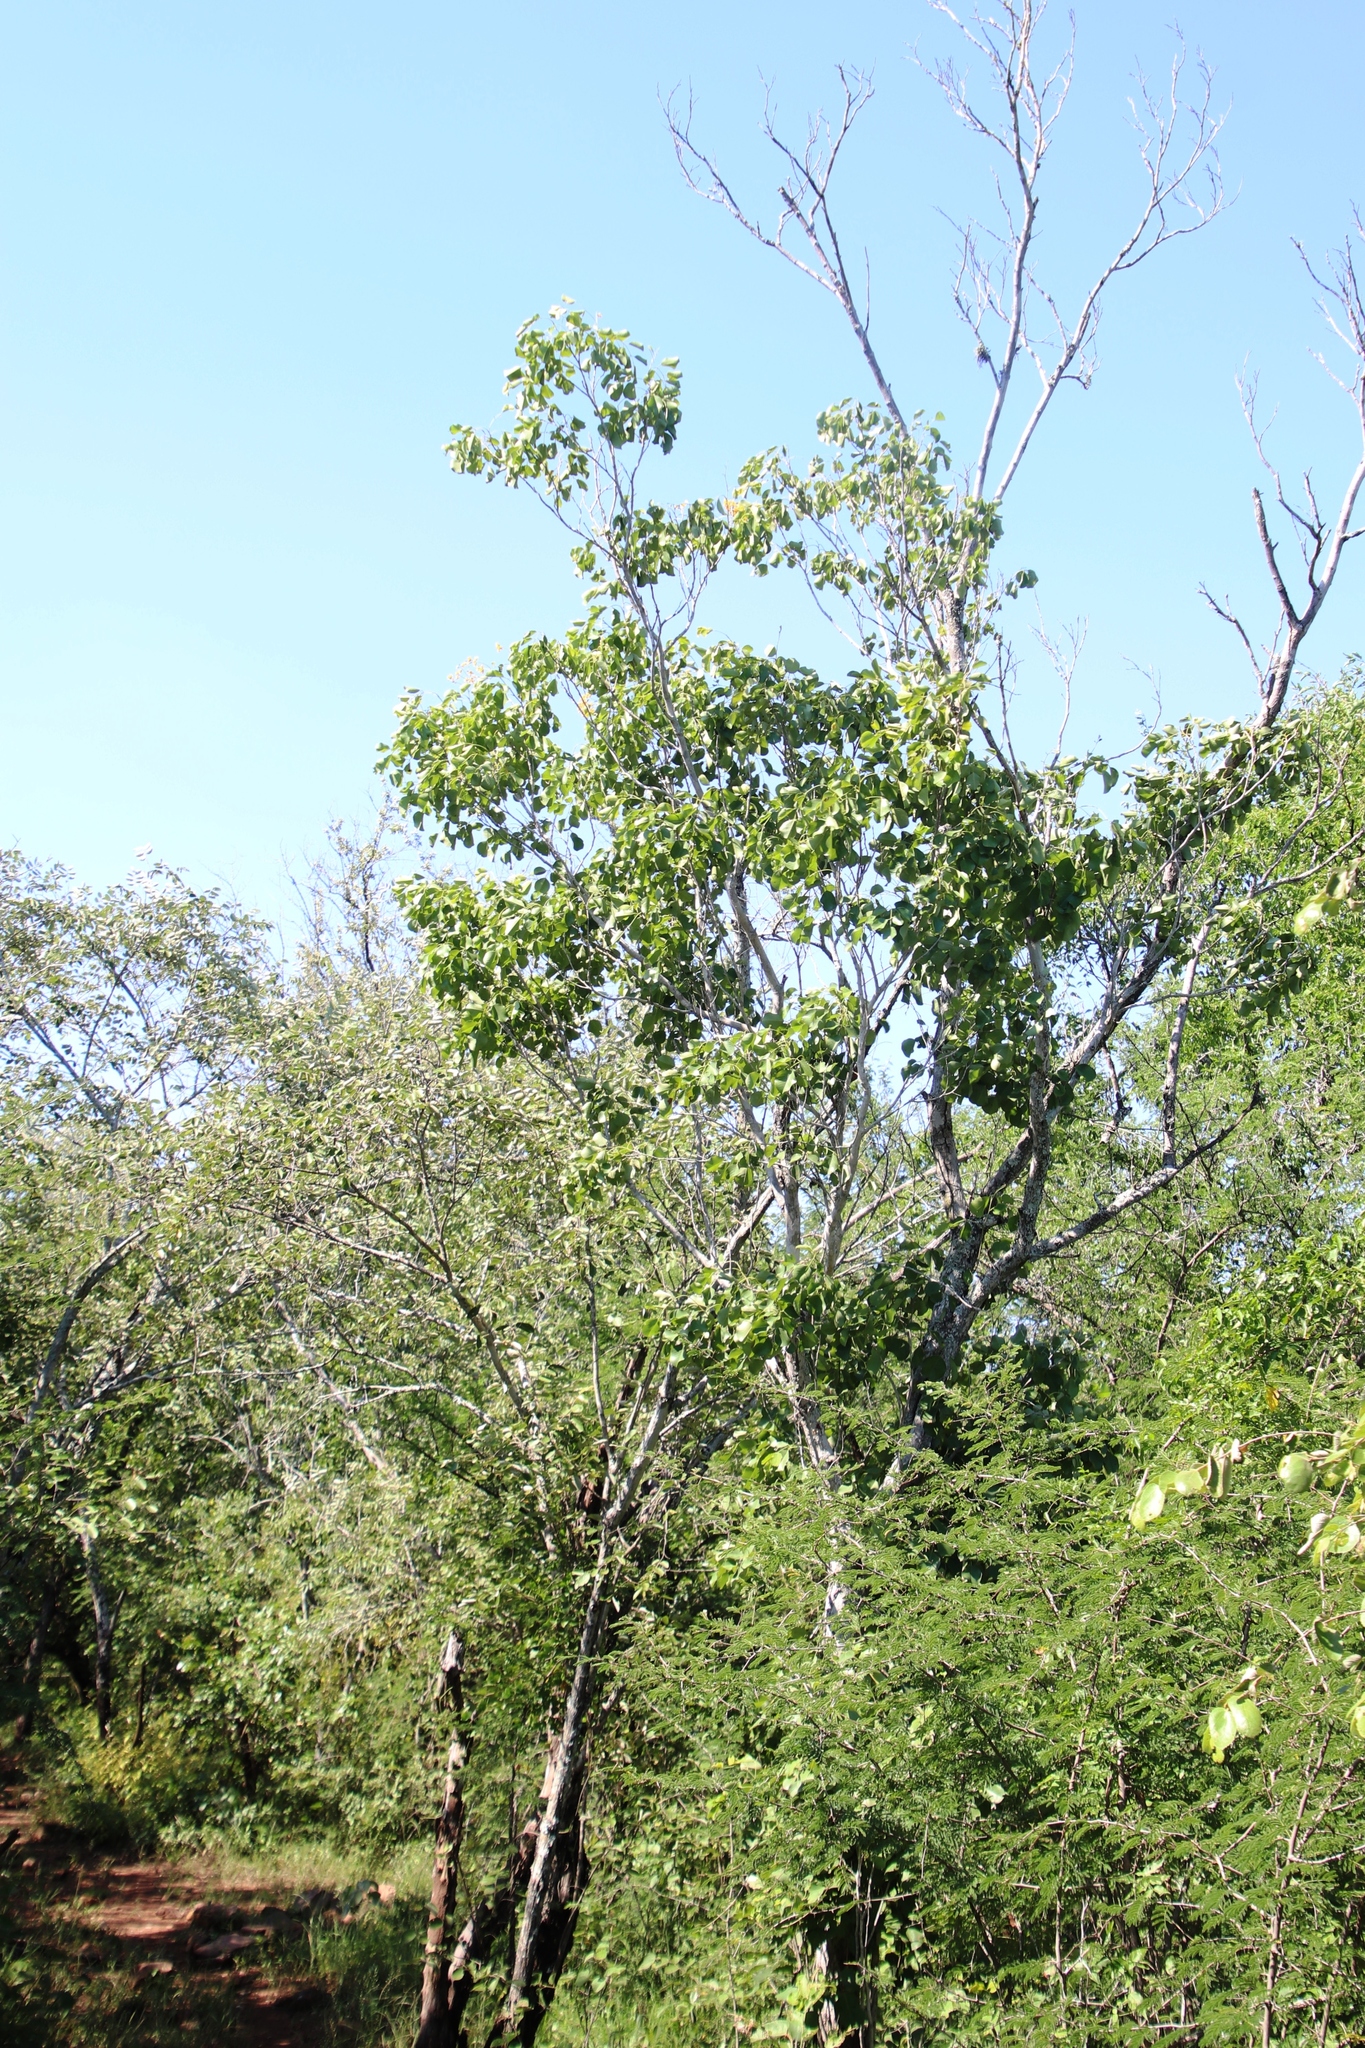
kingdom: Plantae
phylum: Tracheophyta
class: Magnoliopsida
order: Fabales
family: Fabaceae
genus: Senegalia
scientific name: Senegalia nigrescens
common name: Knobthorn
